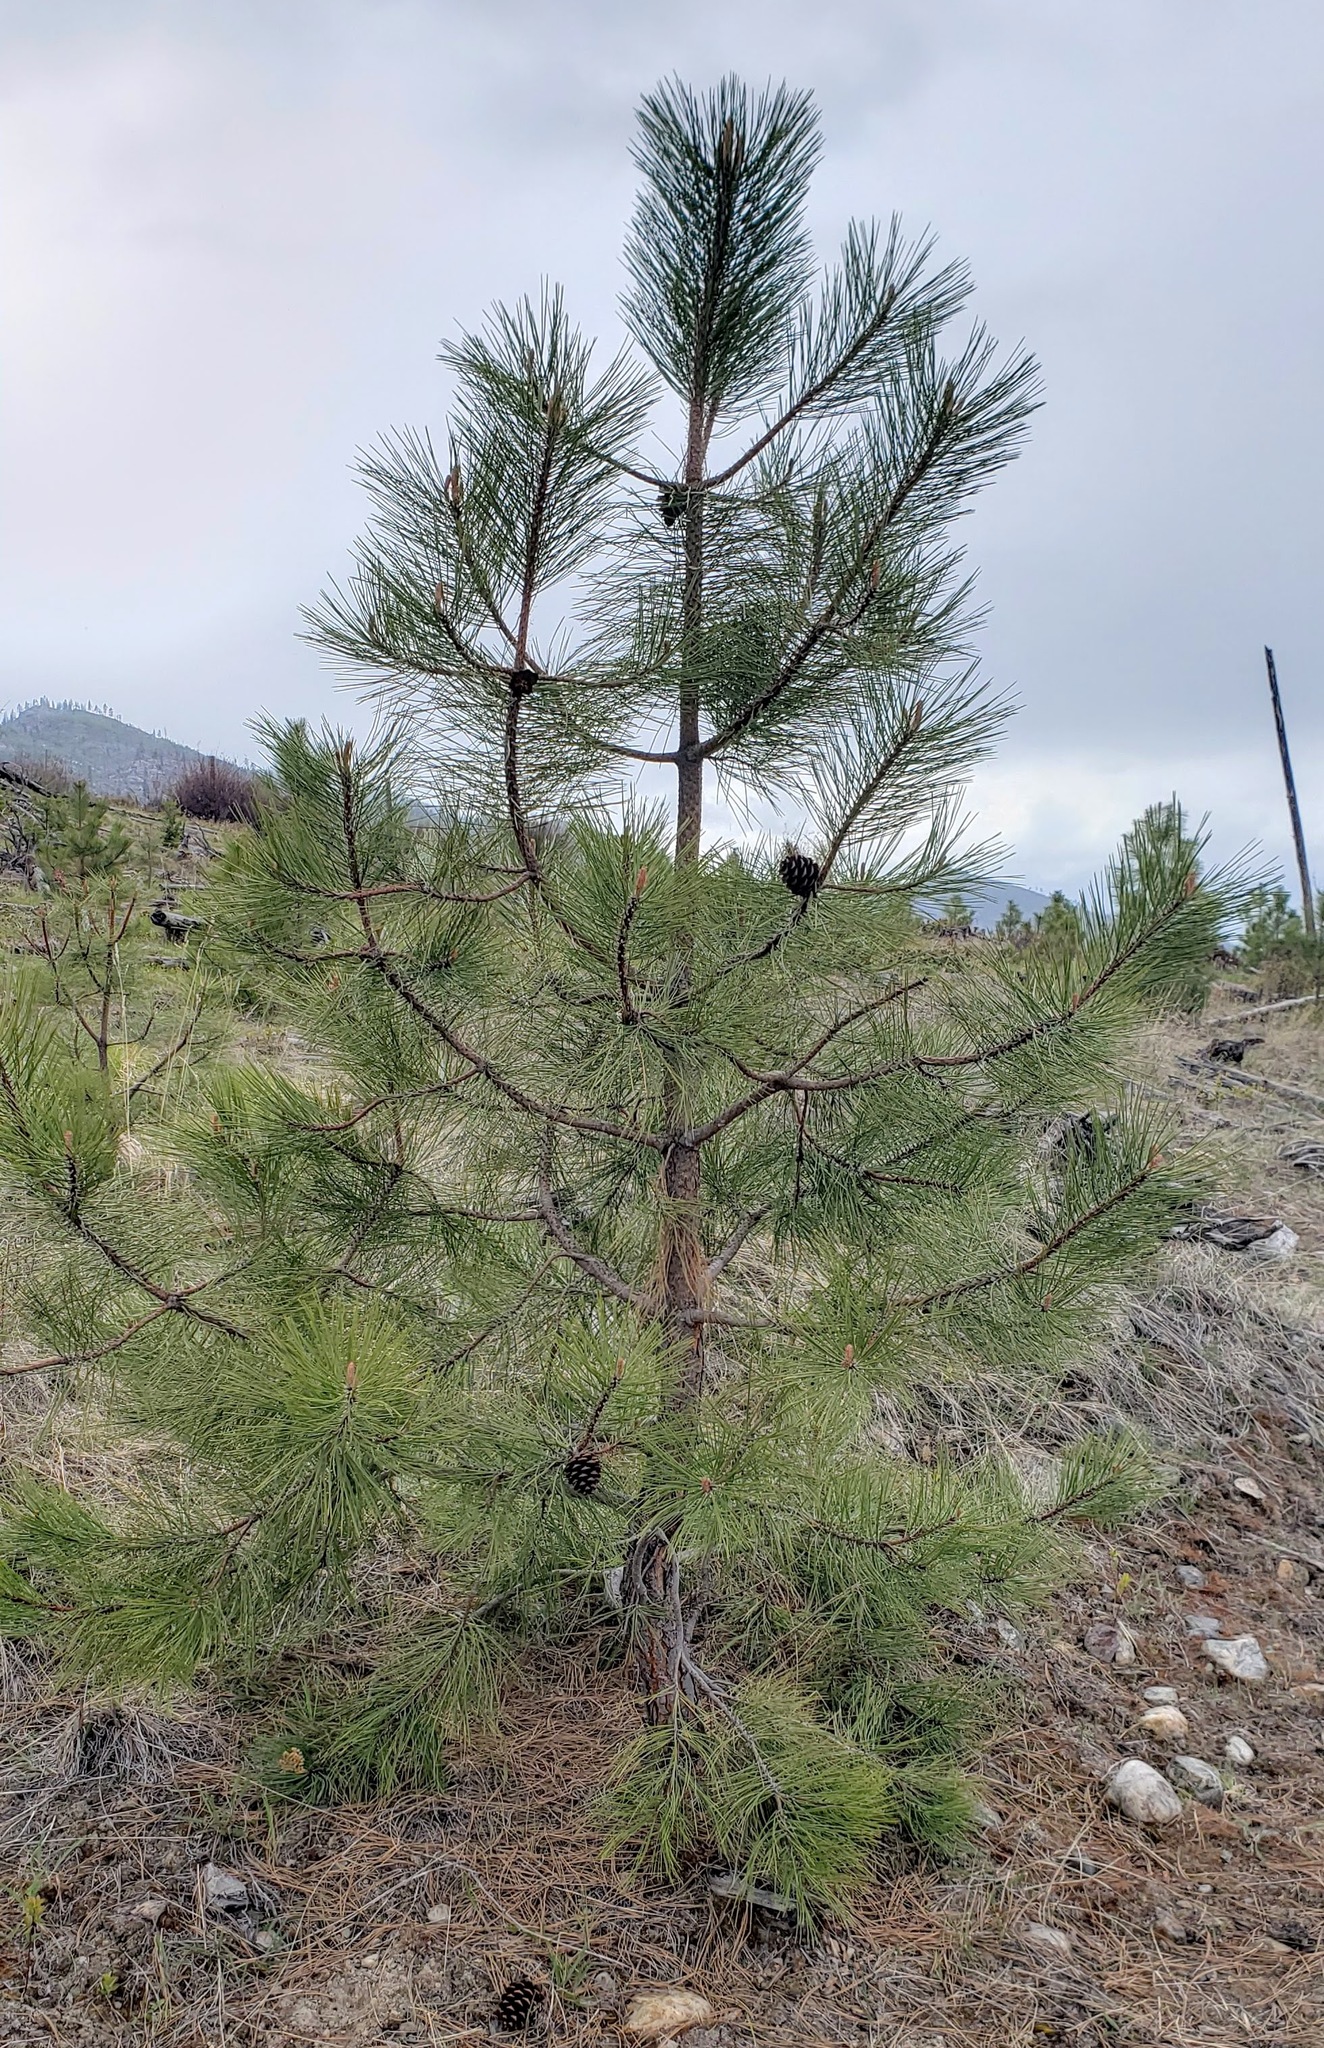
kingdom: Plantae
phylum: Tracheophyta
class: Pinopsida
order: Pinales
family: Pinaceae
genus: Pinus
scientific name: Pinus ponderosa
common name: Western yellow-pine
